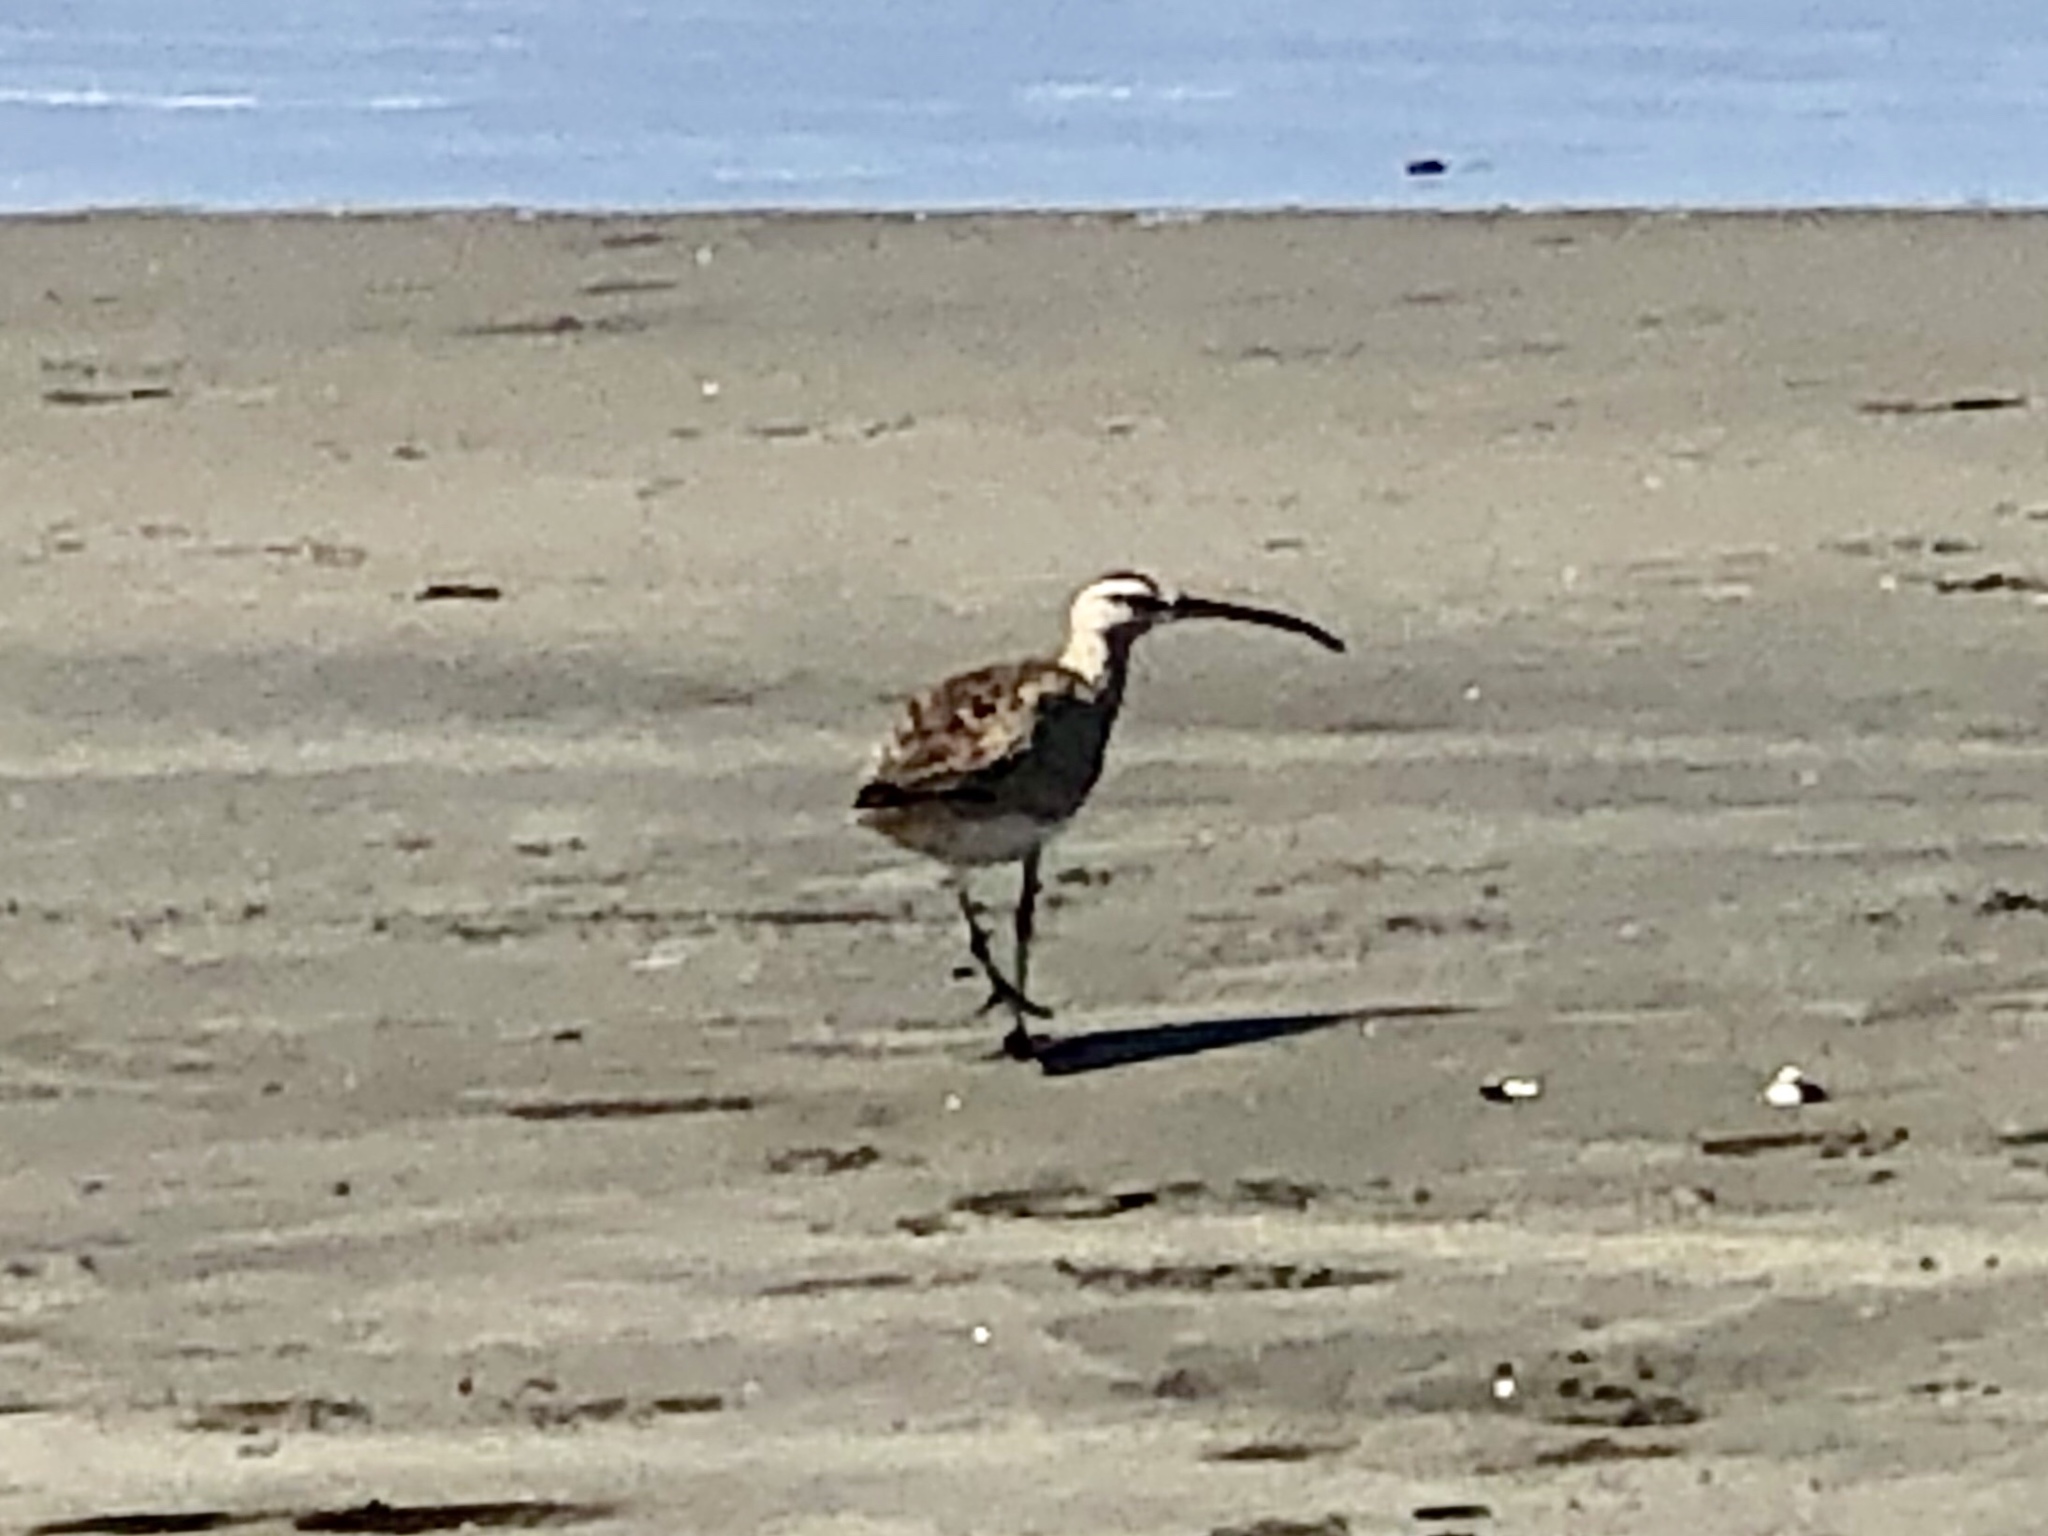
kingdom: Animalia
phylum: Chordata
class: Aves
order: Charadriiformes
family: Scolopacidae
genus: Numenius
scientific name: Numenius phaeopus
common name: Whimbrel
